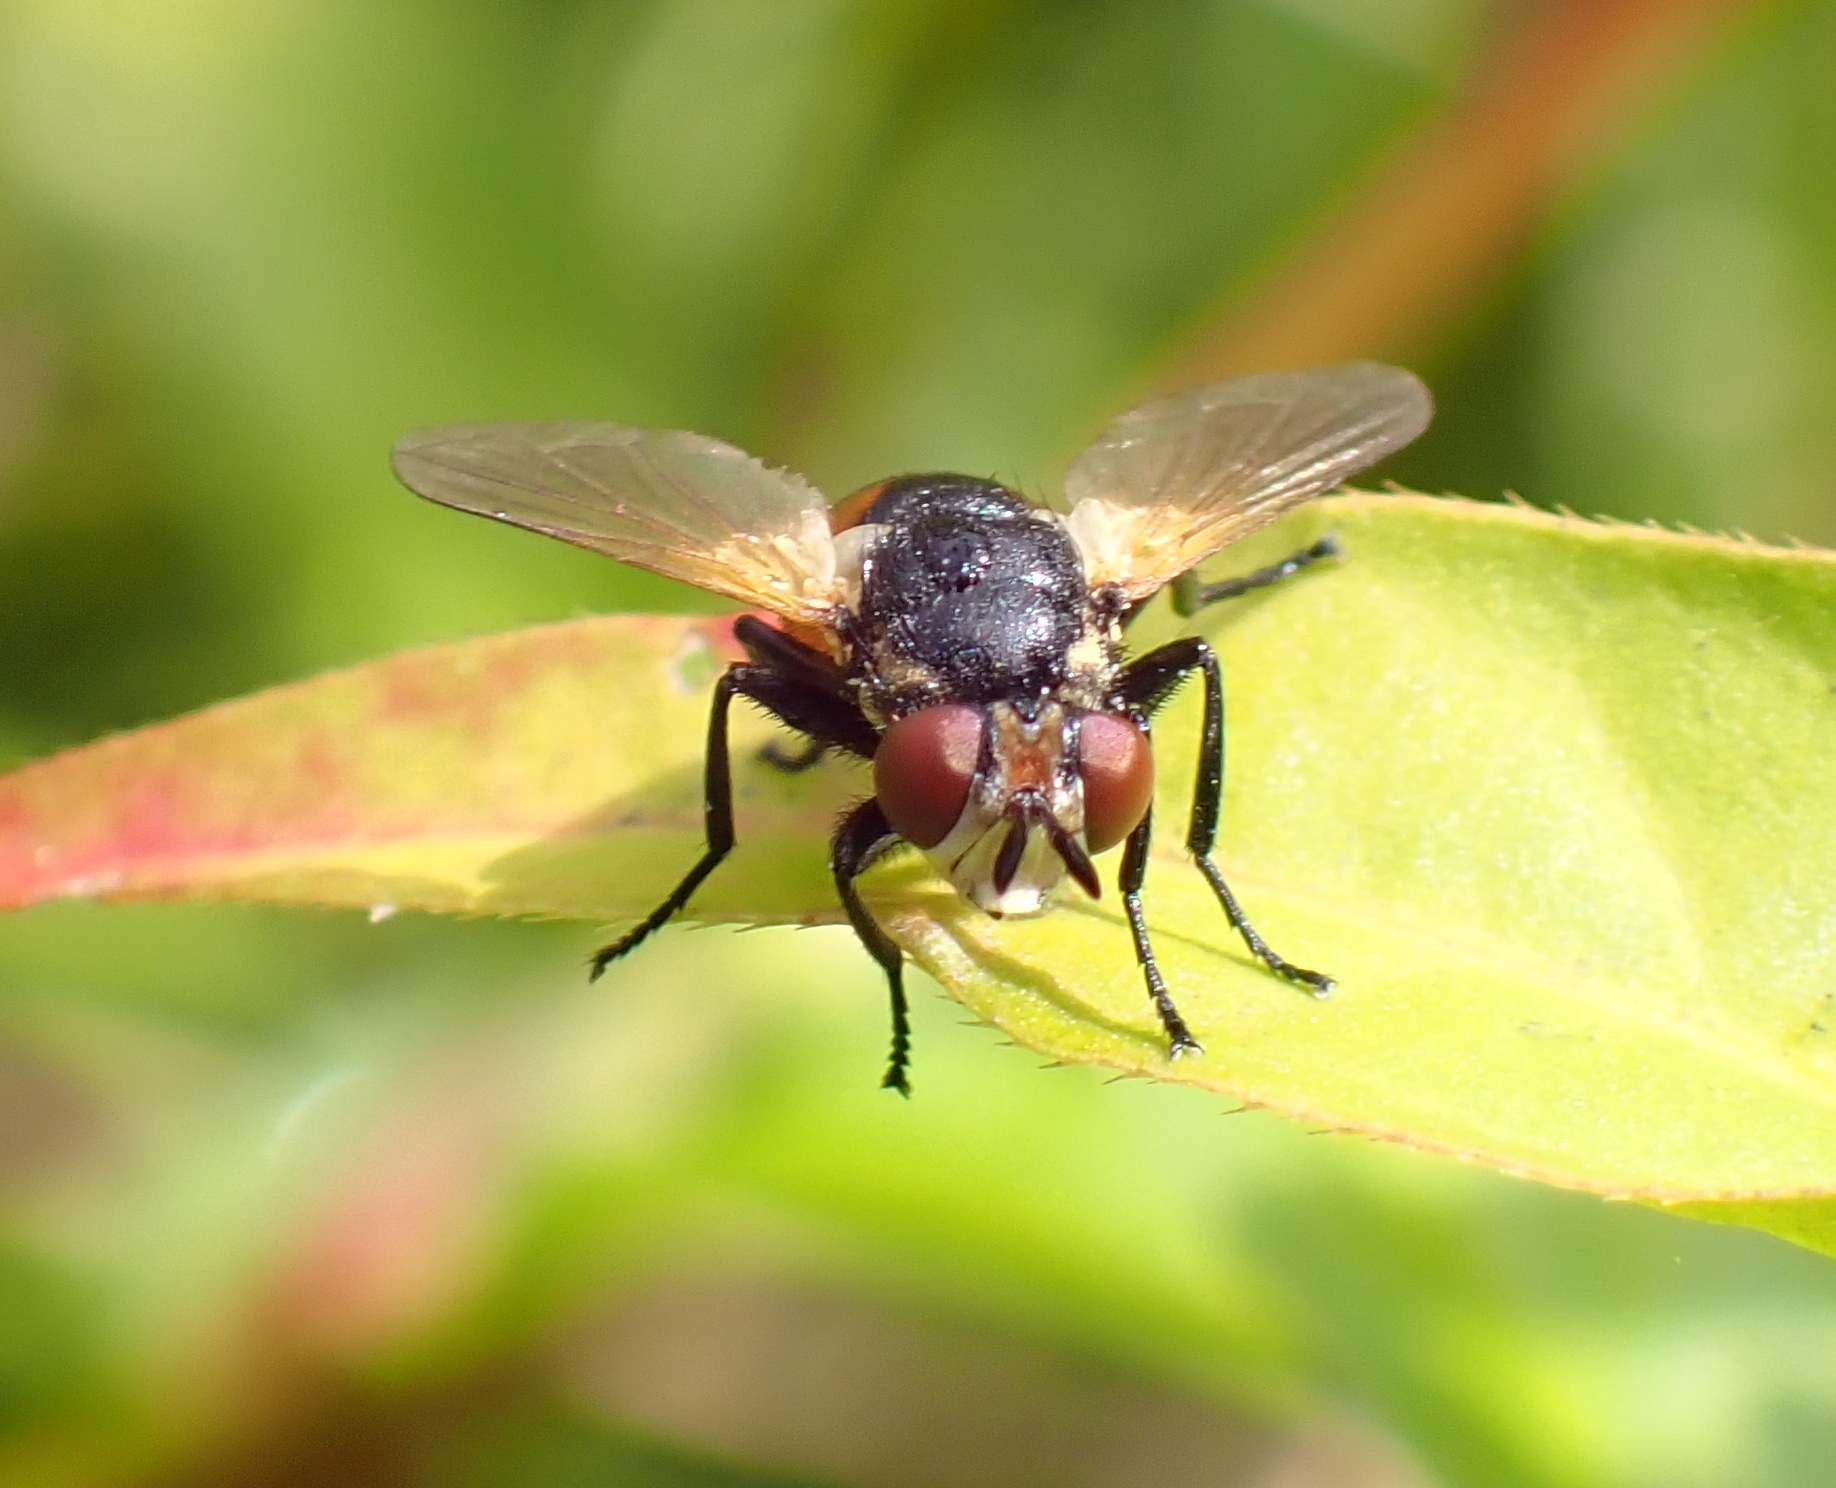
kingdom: Animalia
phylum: Arthropoda
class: Insecta
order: Diptera
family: Tachinidae
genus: Gymnosoma
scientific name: Gymnosoma rotundatum
